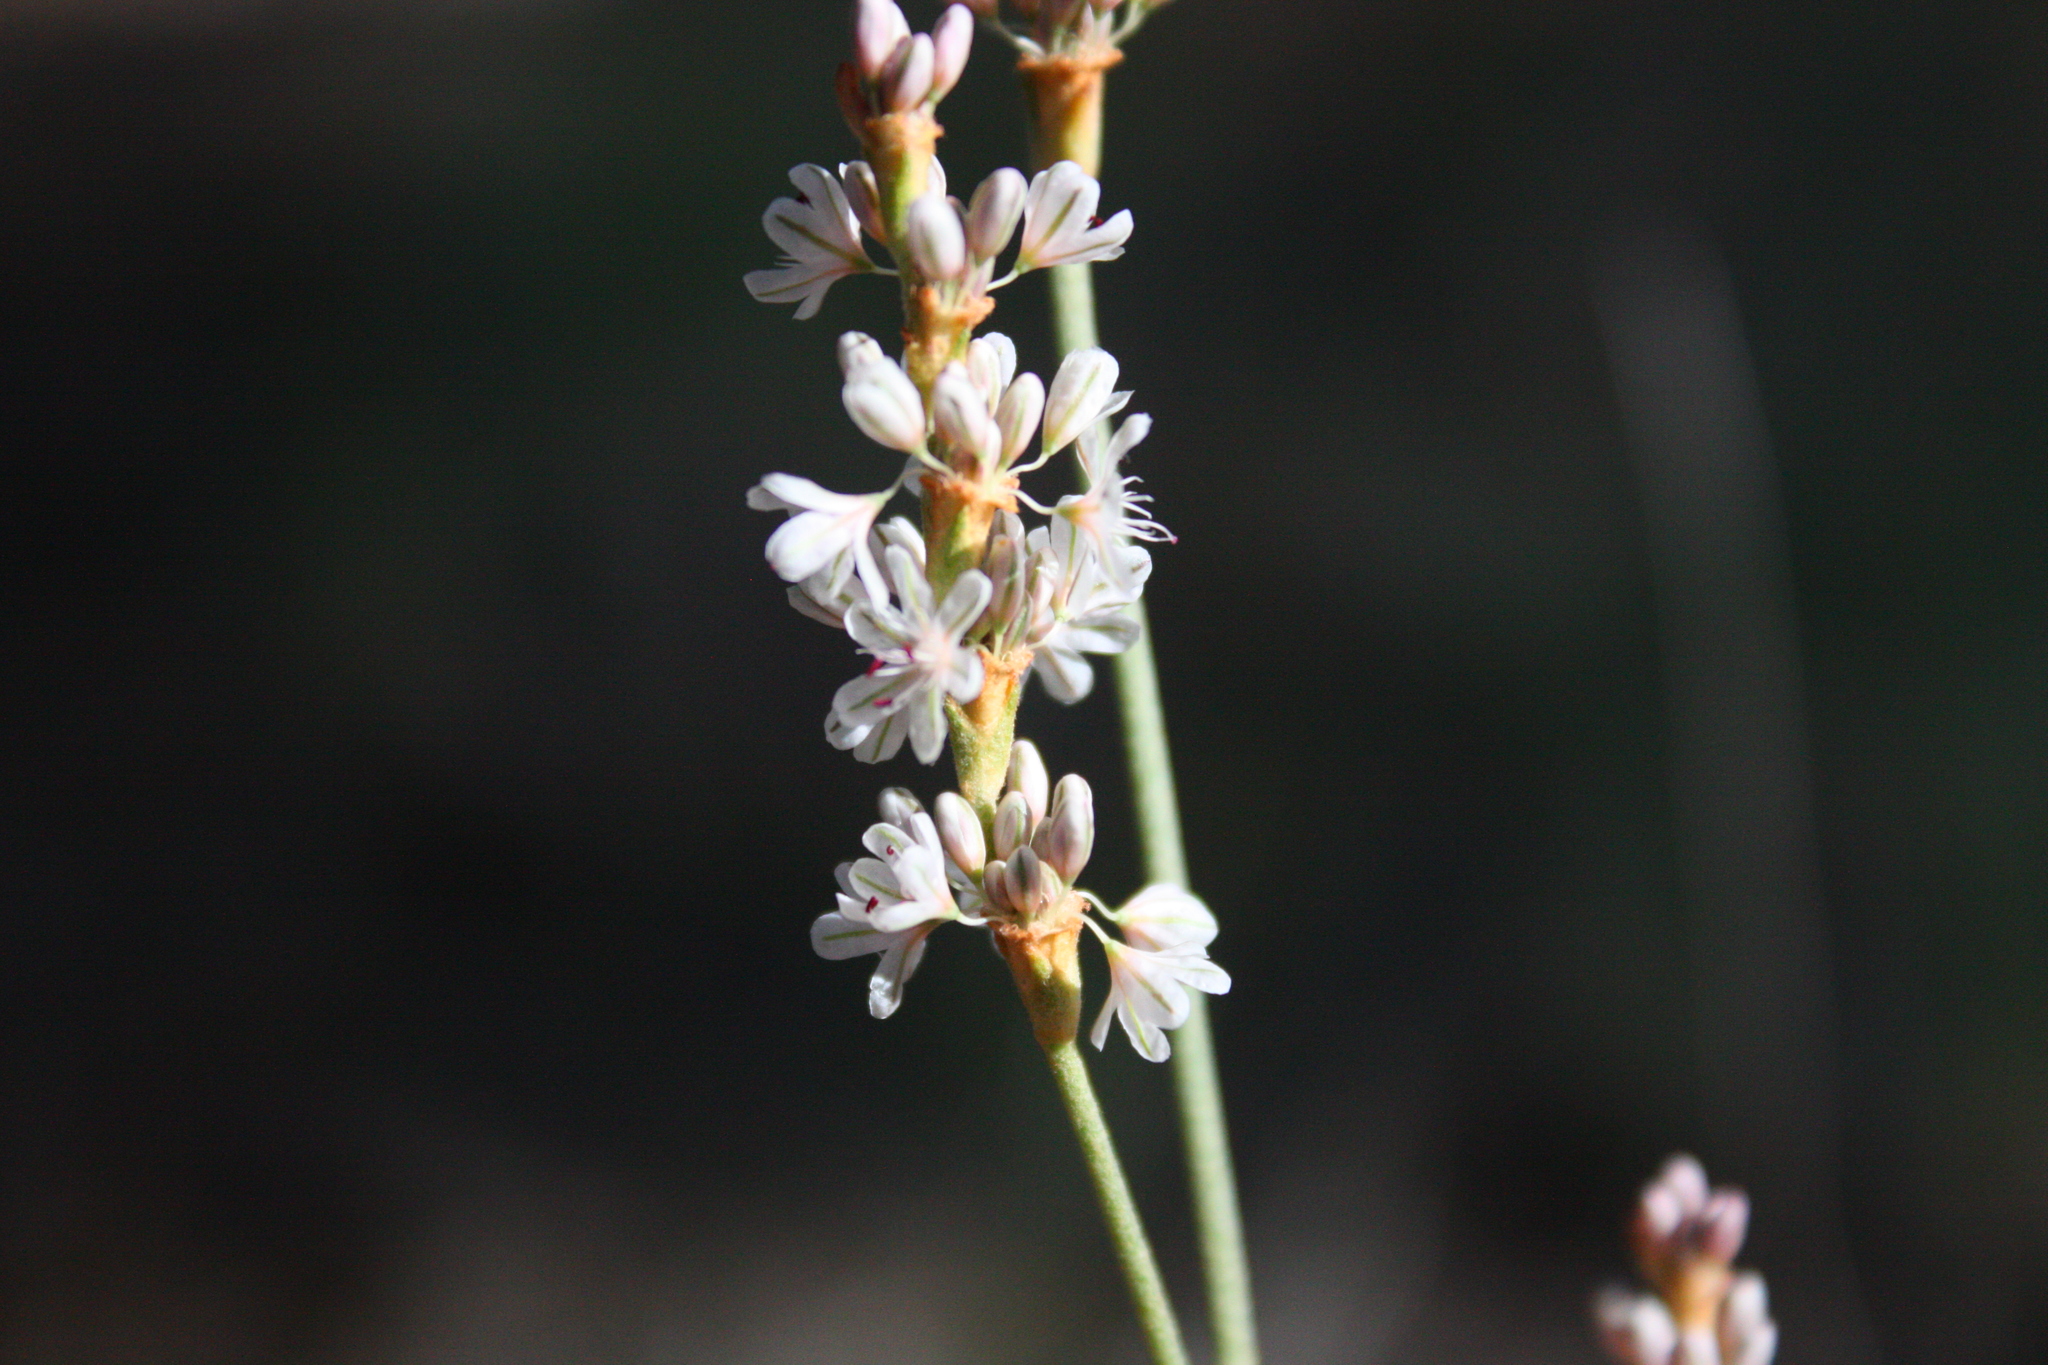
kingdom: Plantae
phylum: Tracheophyta
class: Magnoliopsida
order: Caryophyllales
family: Polygonaceae
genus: Eriogonum
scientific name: Eriogonum racemosum
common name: Redroot wild buckwheat
